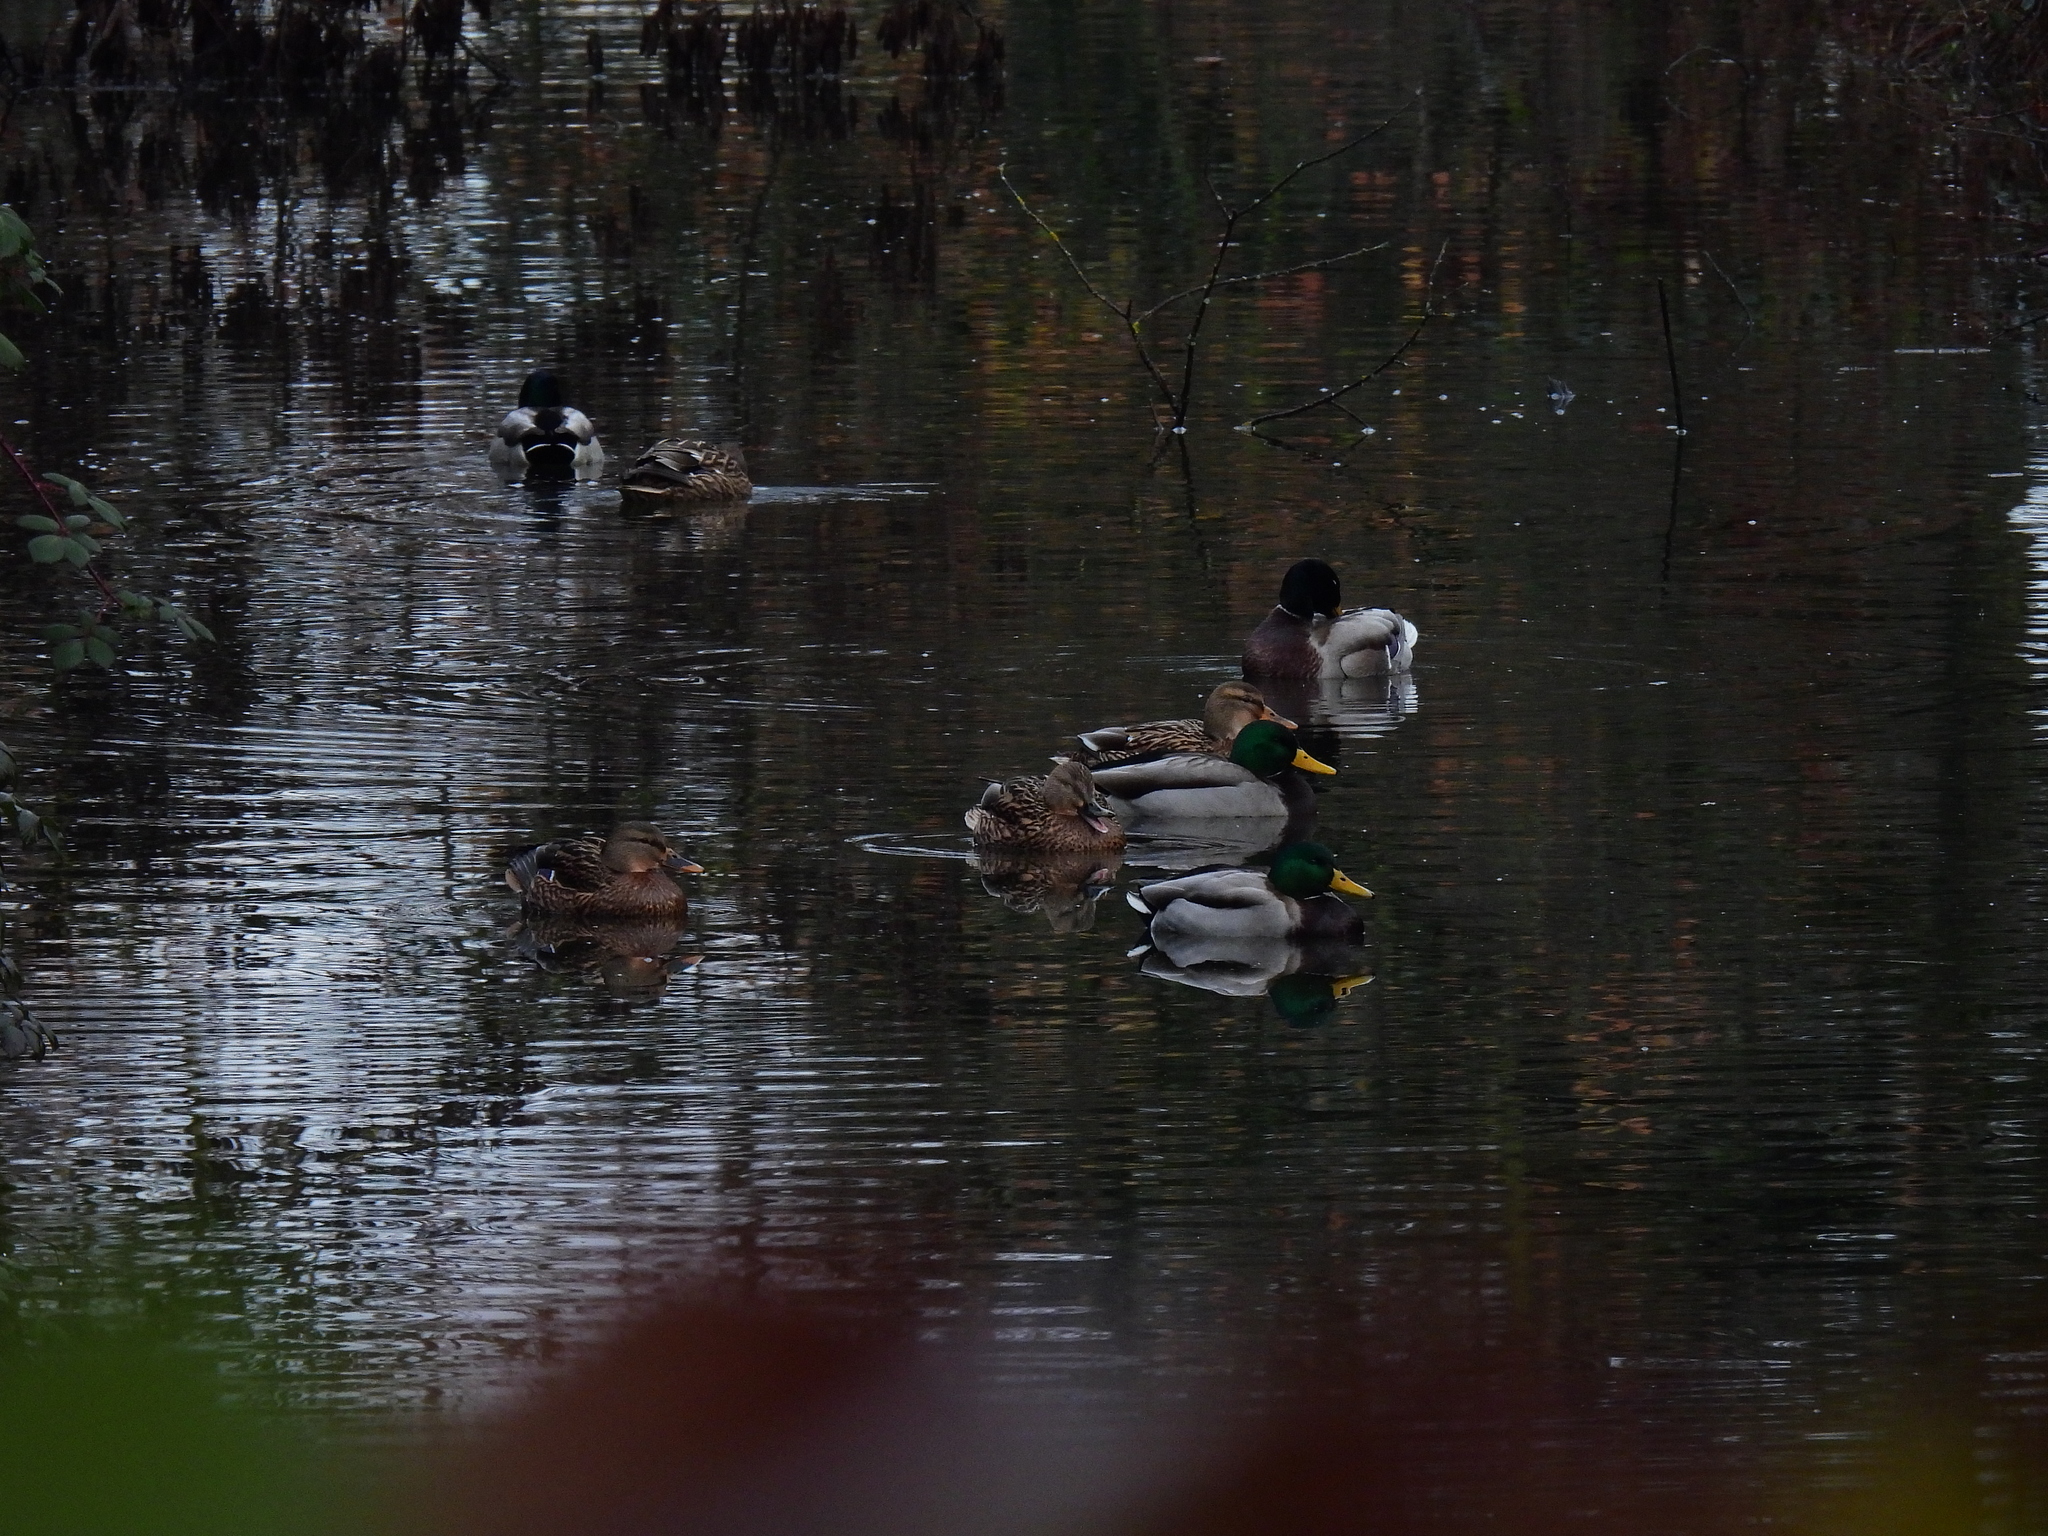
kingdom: Animalia
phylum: Chordata
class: Aves
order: Anseriformes
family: Anatidae
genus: Anas
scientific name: Anas platyrhynchos
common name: Mallard
